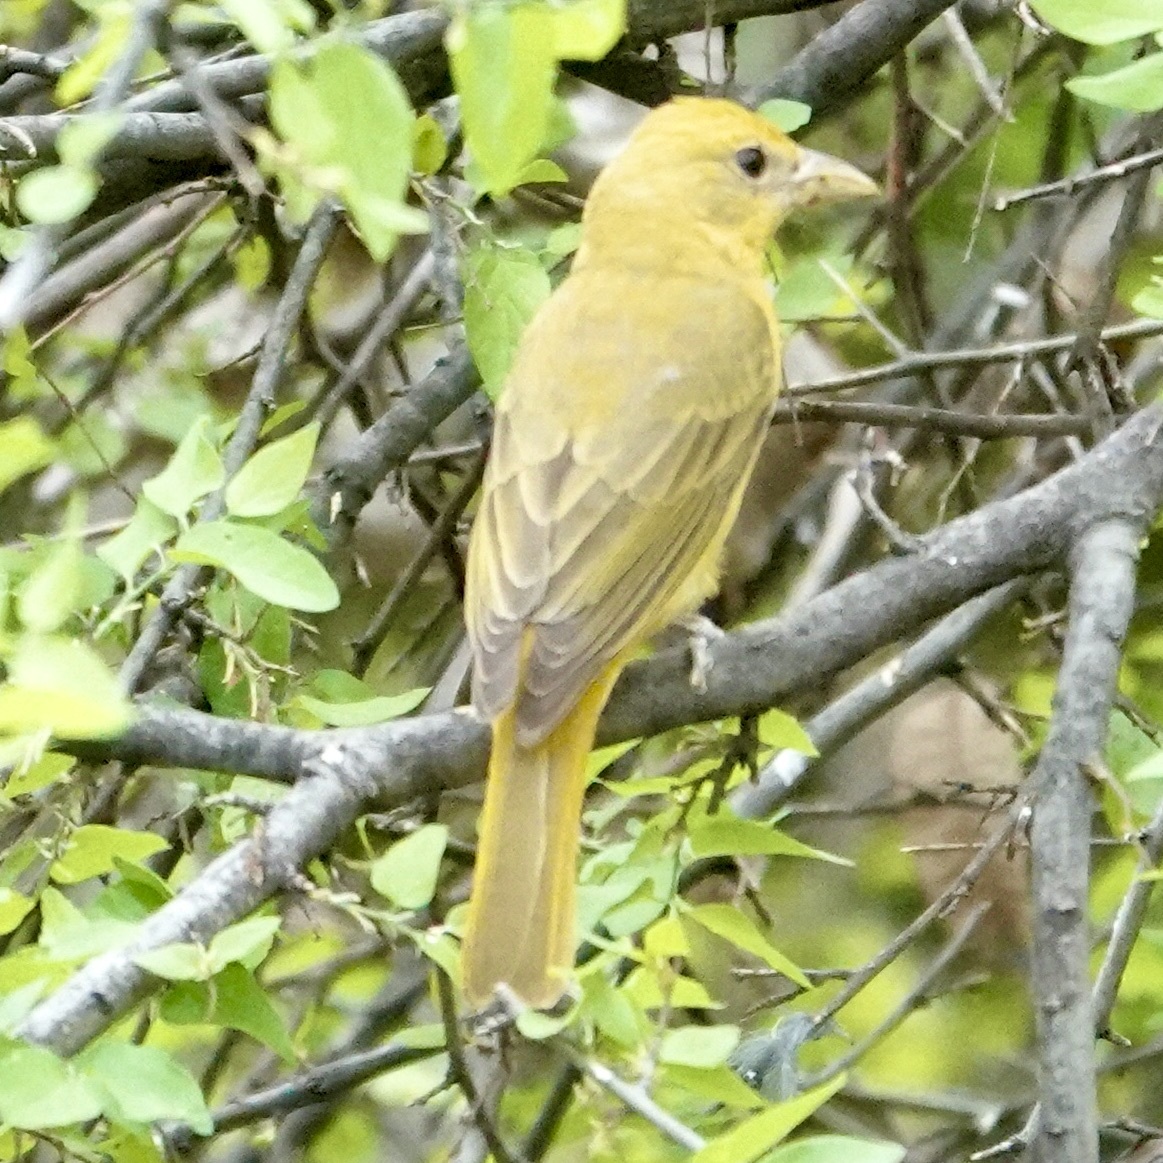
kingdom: Animalia
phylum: Chordata
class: Aves
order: Passeriformes
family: Cardinalidae
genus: Piranga
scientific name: Piranga rubra
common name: Summer tanager
